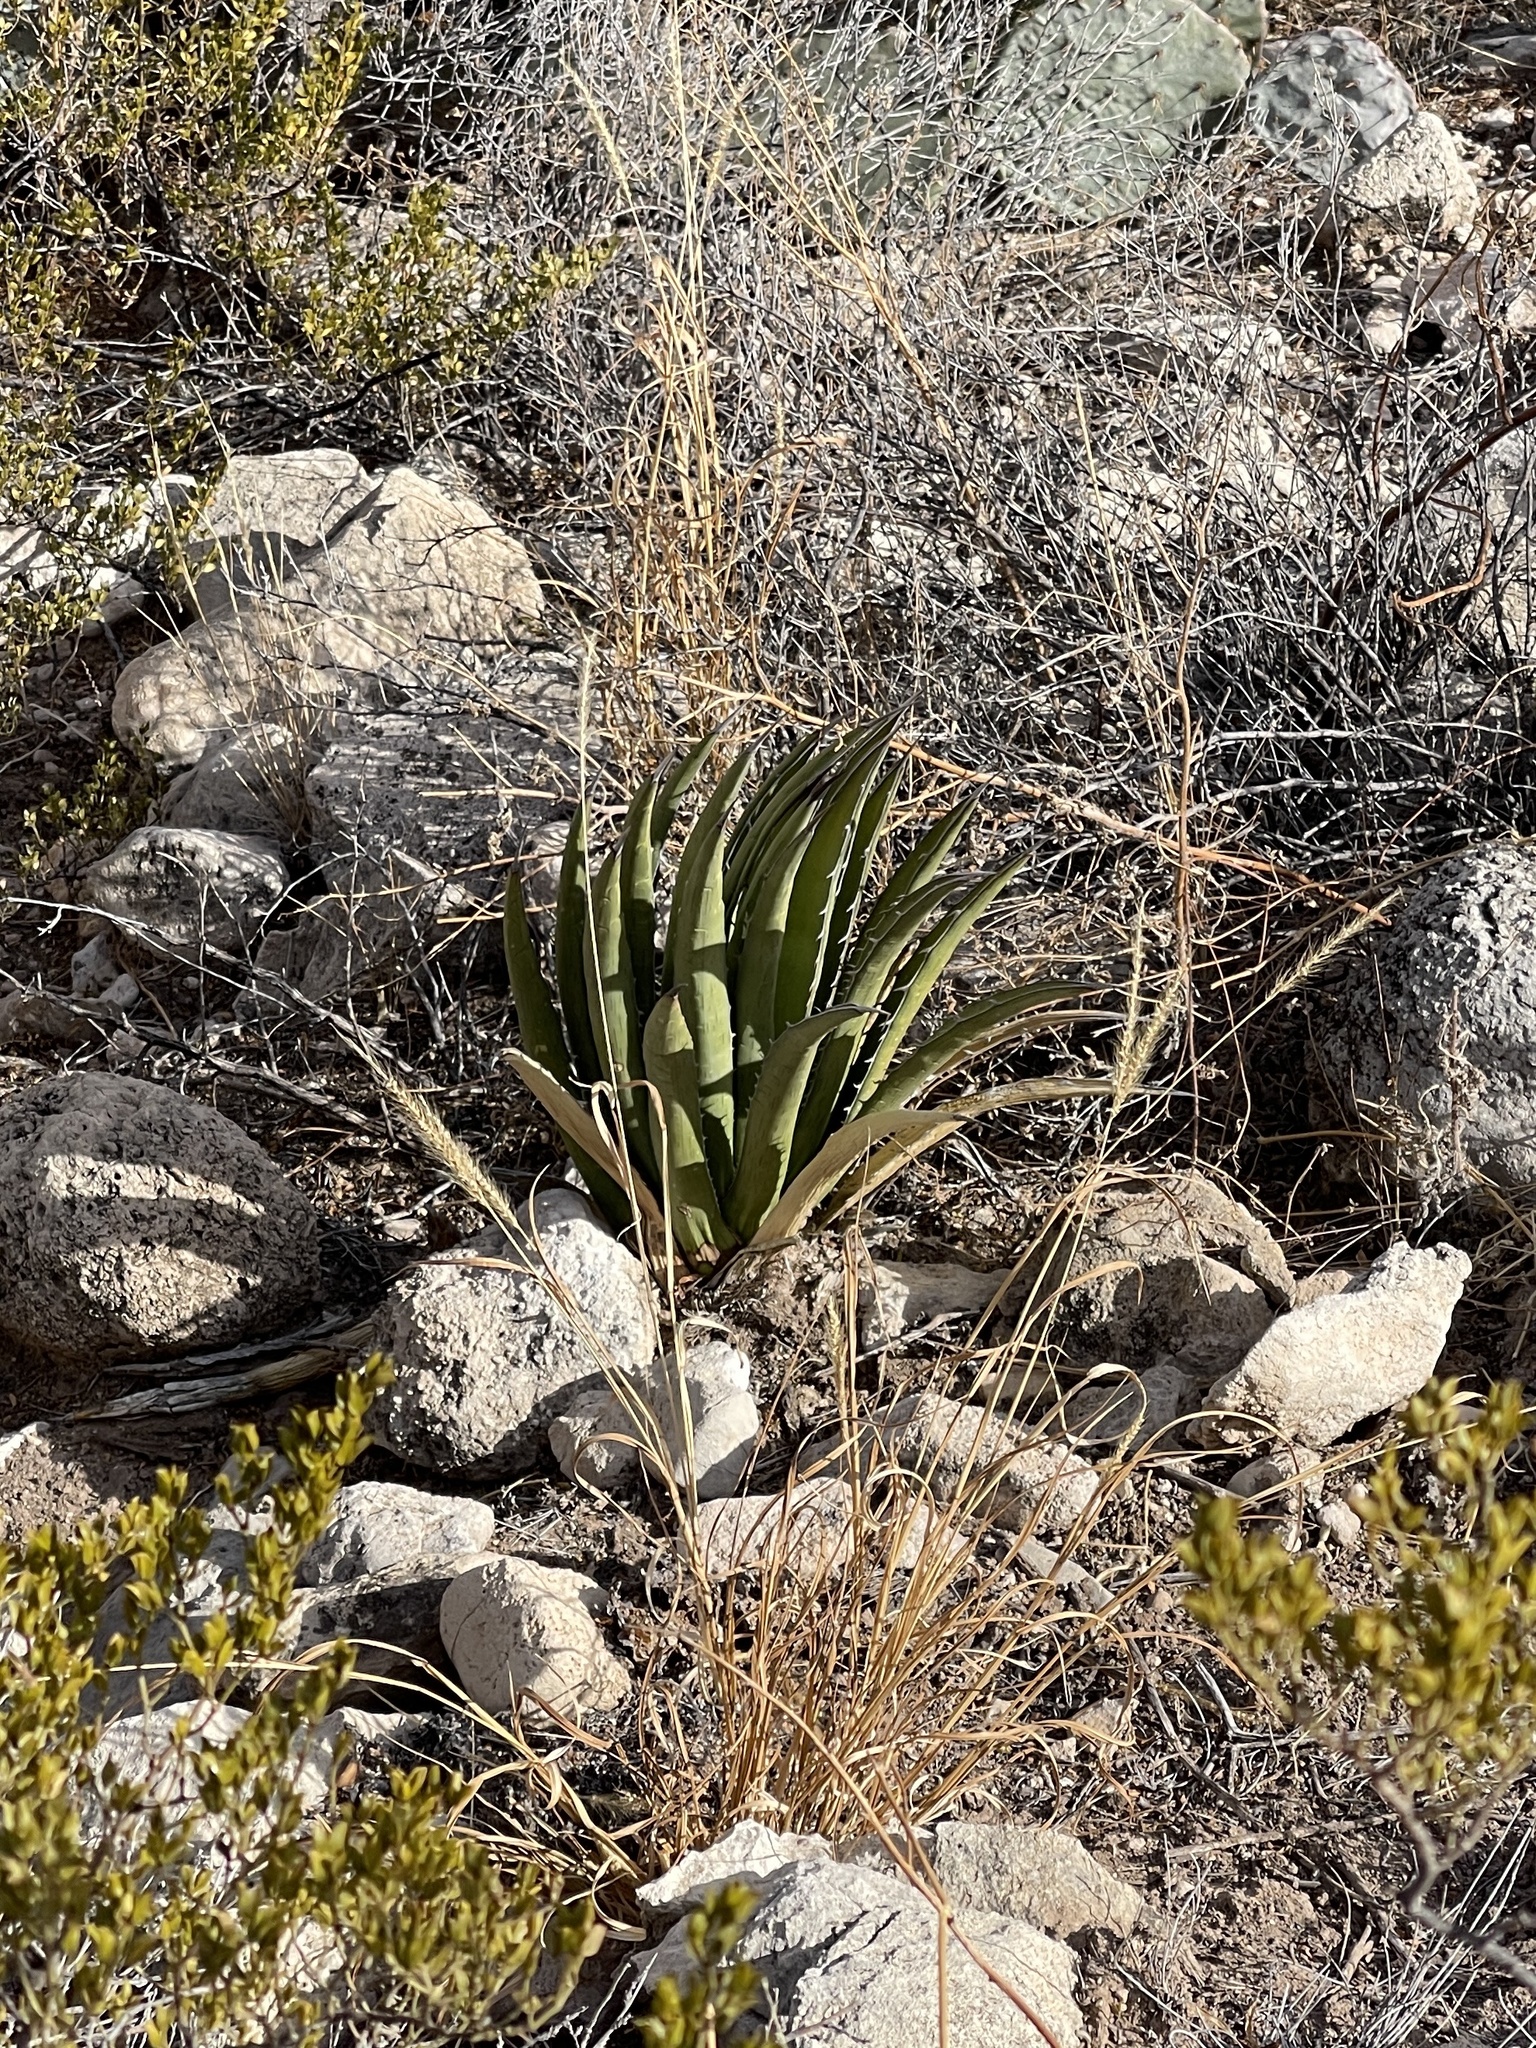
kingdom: Plantae
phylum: Tracheophyta
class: Liliopsida
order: Asparagales
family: Asparagaceae
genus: Agave
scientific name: Agave lechuguilla
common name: Lecheguilla agave
